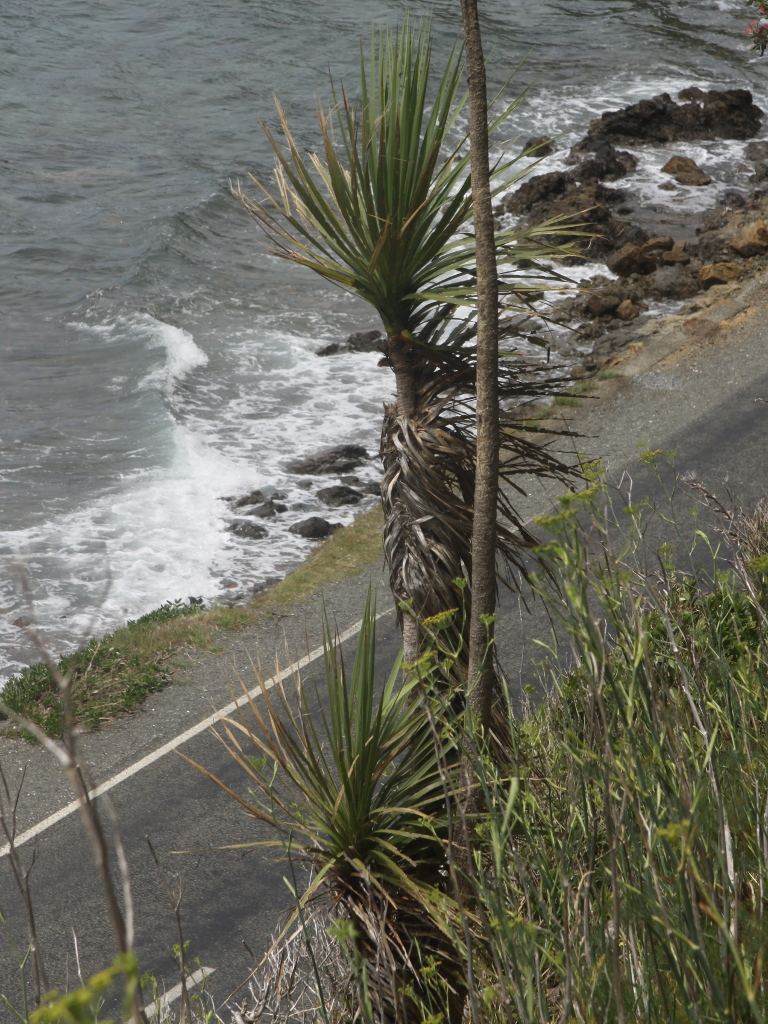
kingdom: Plantae
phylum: Tracheophyta
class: Liliopsida
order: Asparagales
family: Asparagaceae
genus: Cordyline
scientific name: Cordyline australis
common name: Cabbage-palm
